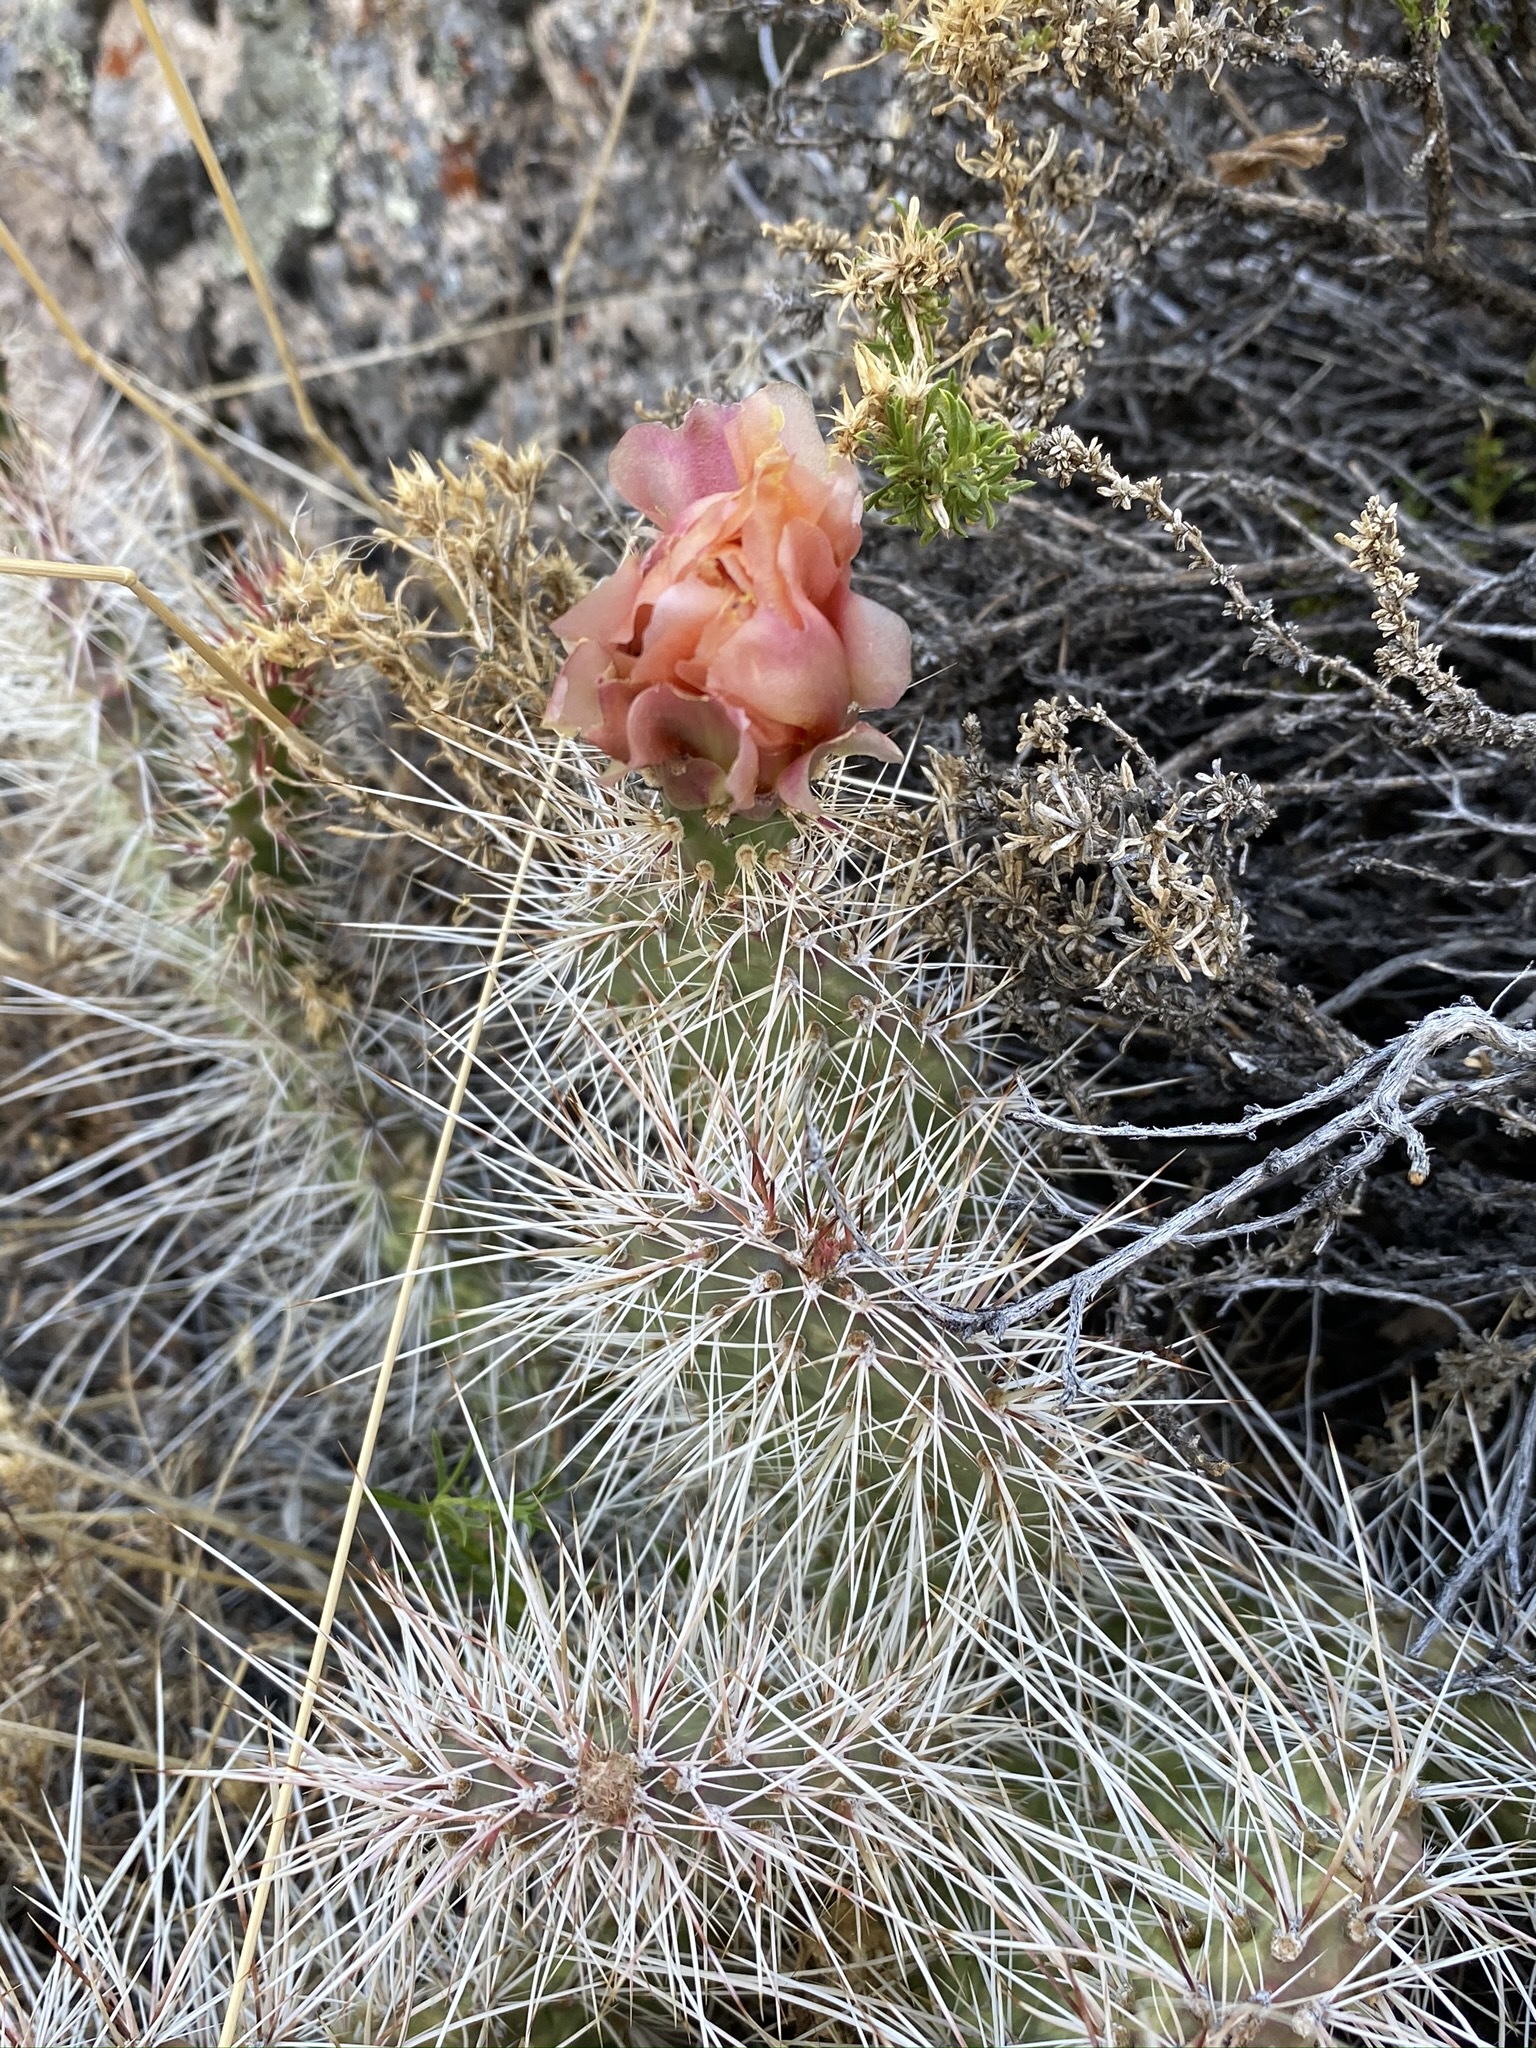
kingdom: Plantae
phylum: Tracheophyta
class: Magnoliopsida
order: Caryophyllales
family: Cactaceae
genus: Opuntia
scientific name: Opuntia polyacantha
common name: Plains prickly-pear
